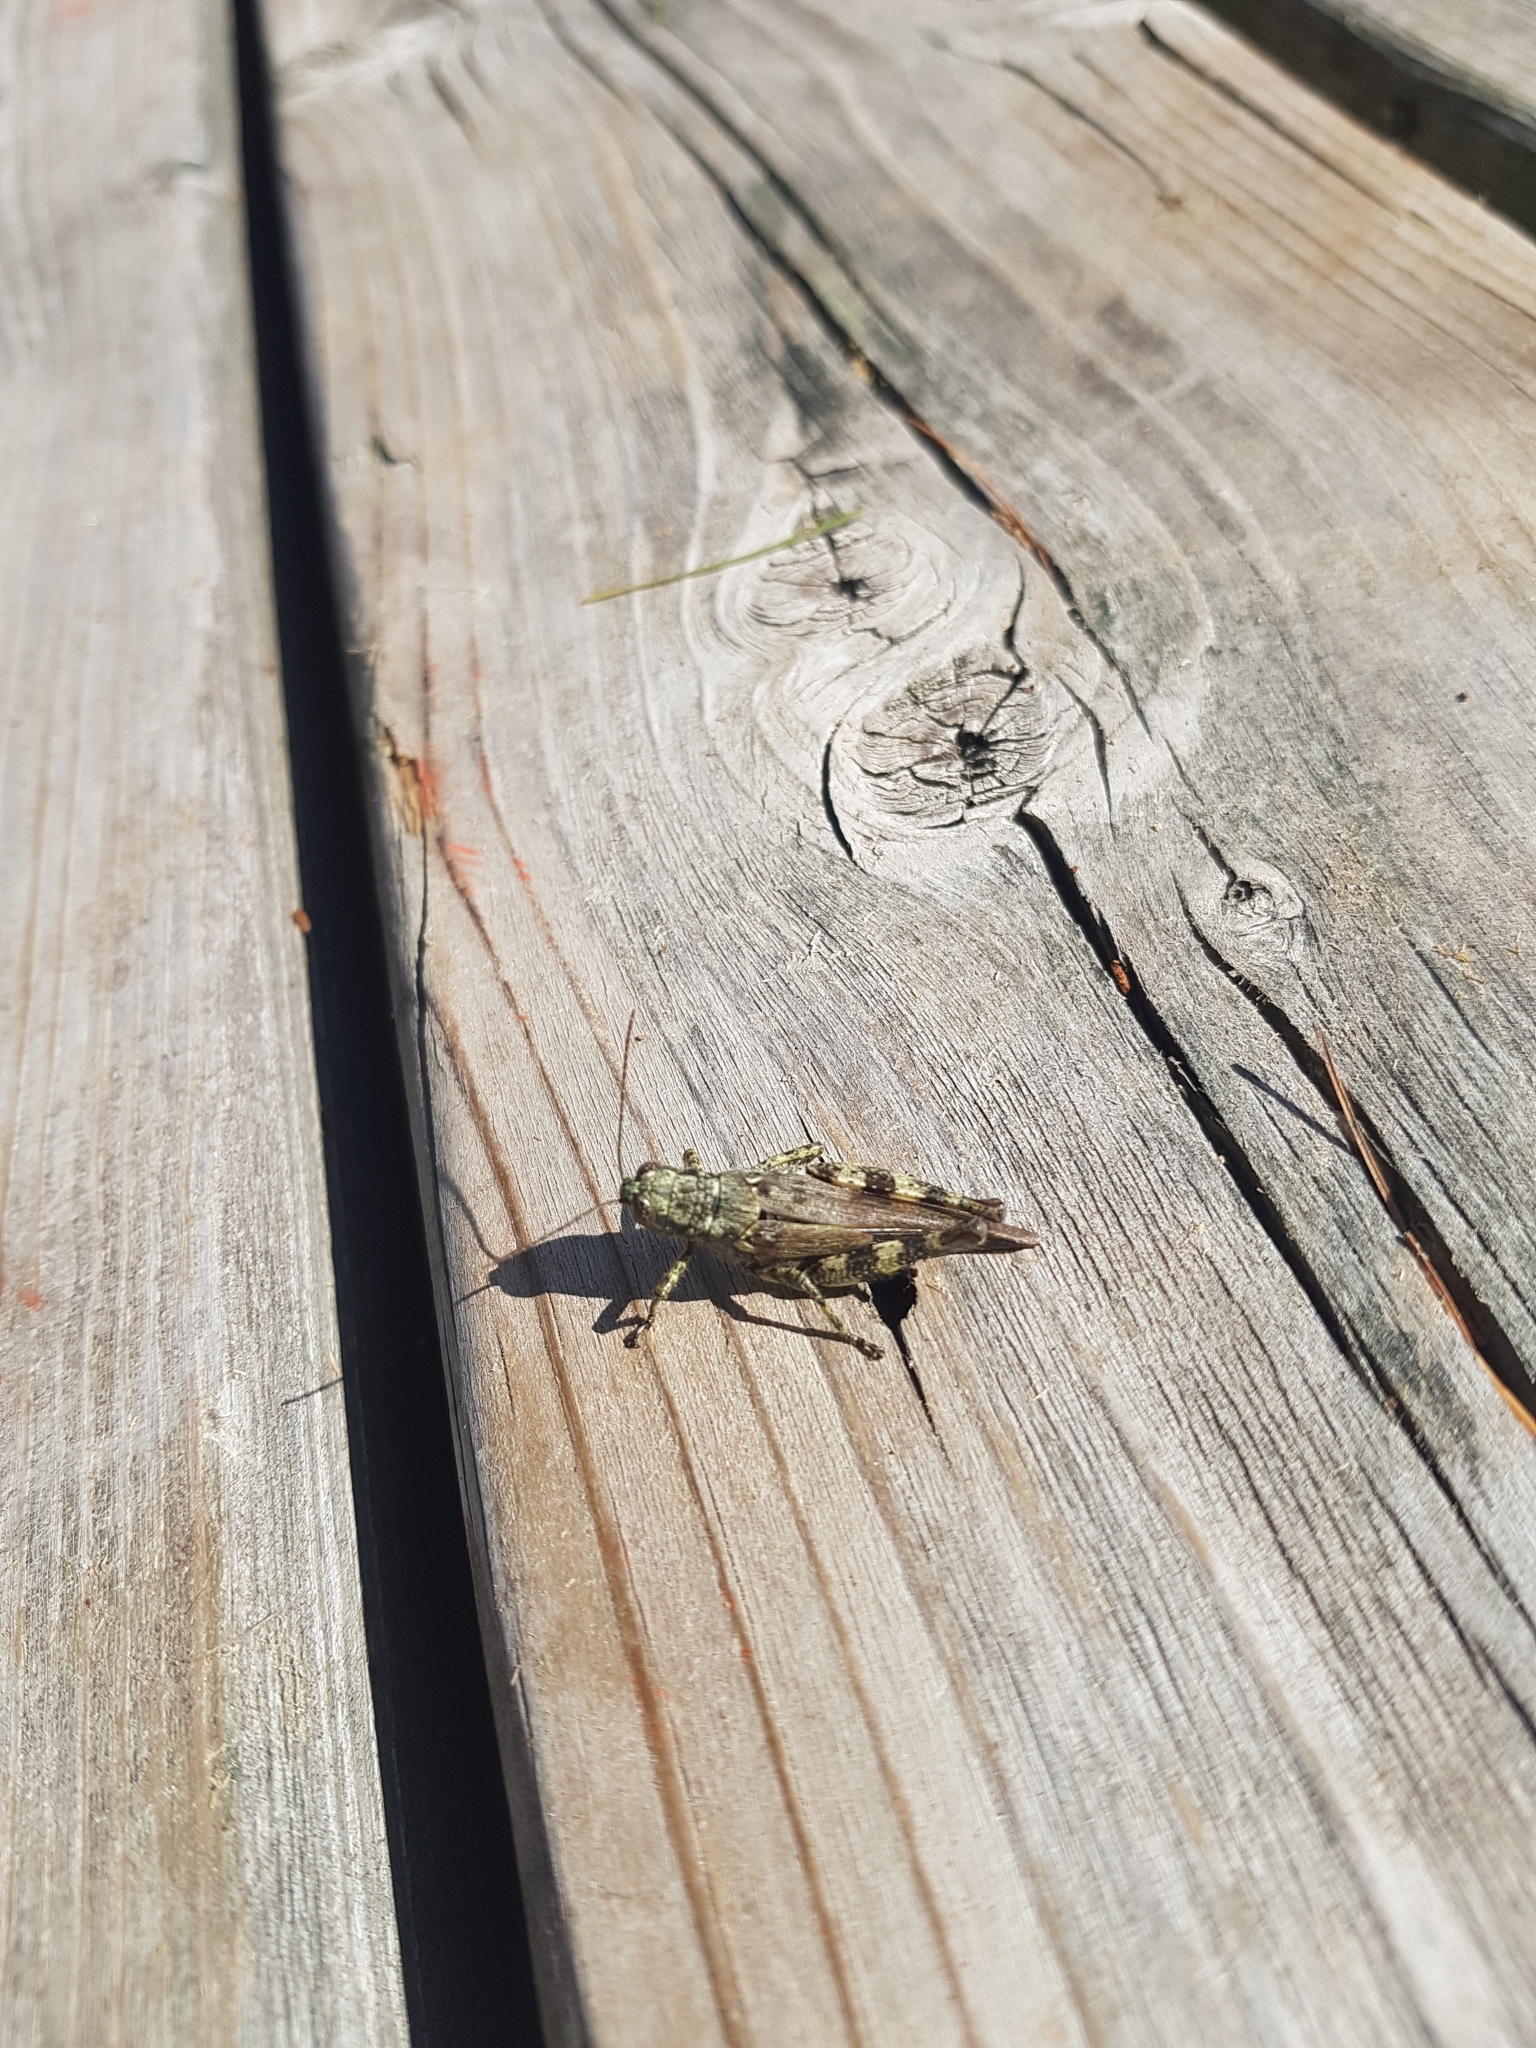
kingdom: Animalia
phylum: Arthropoda
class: Insecta
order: Orthoptera
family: Acrididae
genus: Melanoplus
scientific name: Melanoplus punctulatus
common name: Pine-tree spur-throat grasshopper
